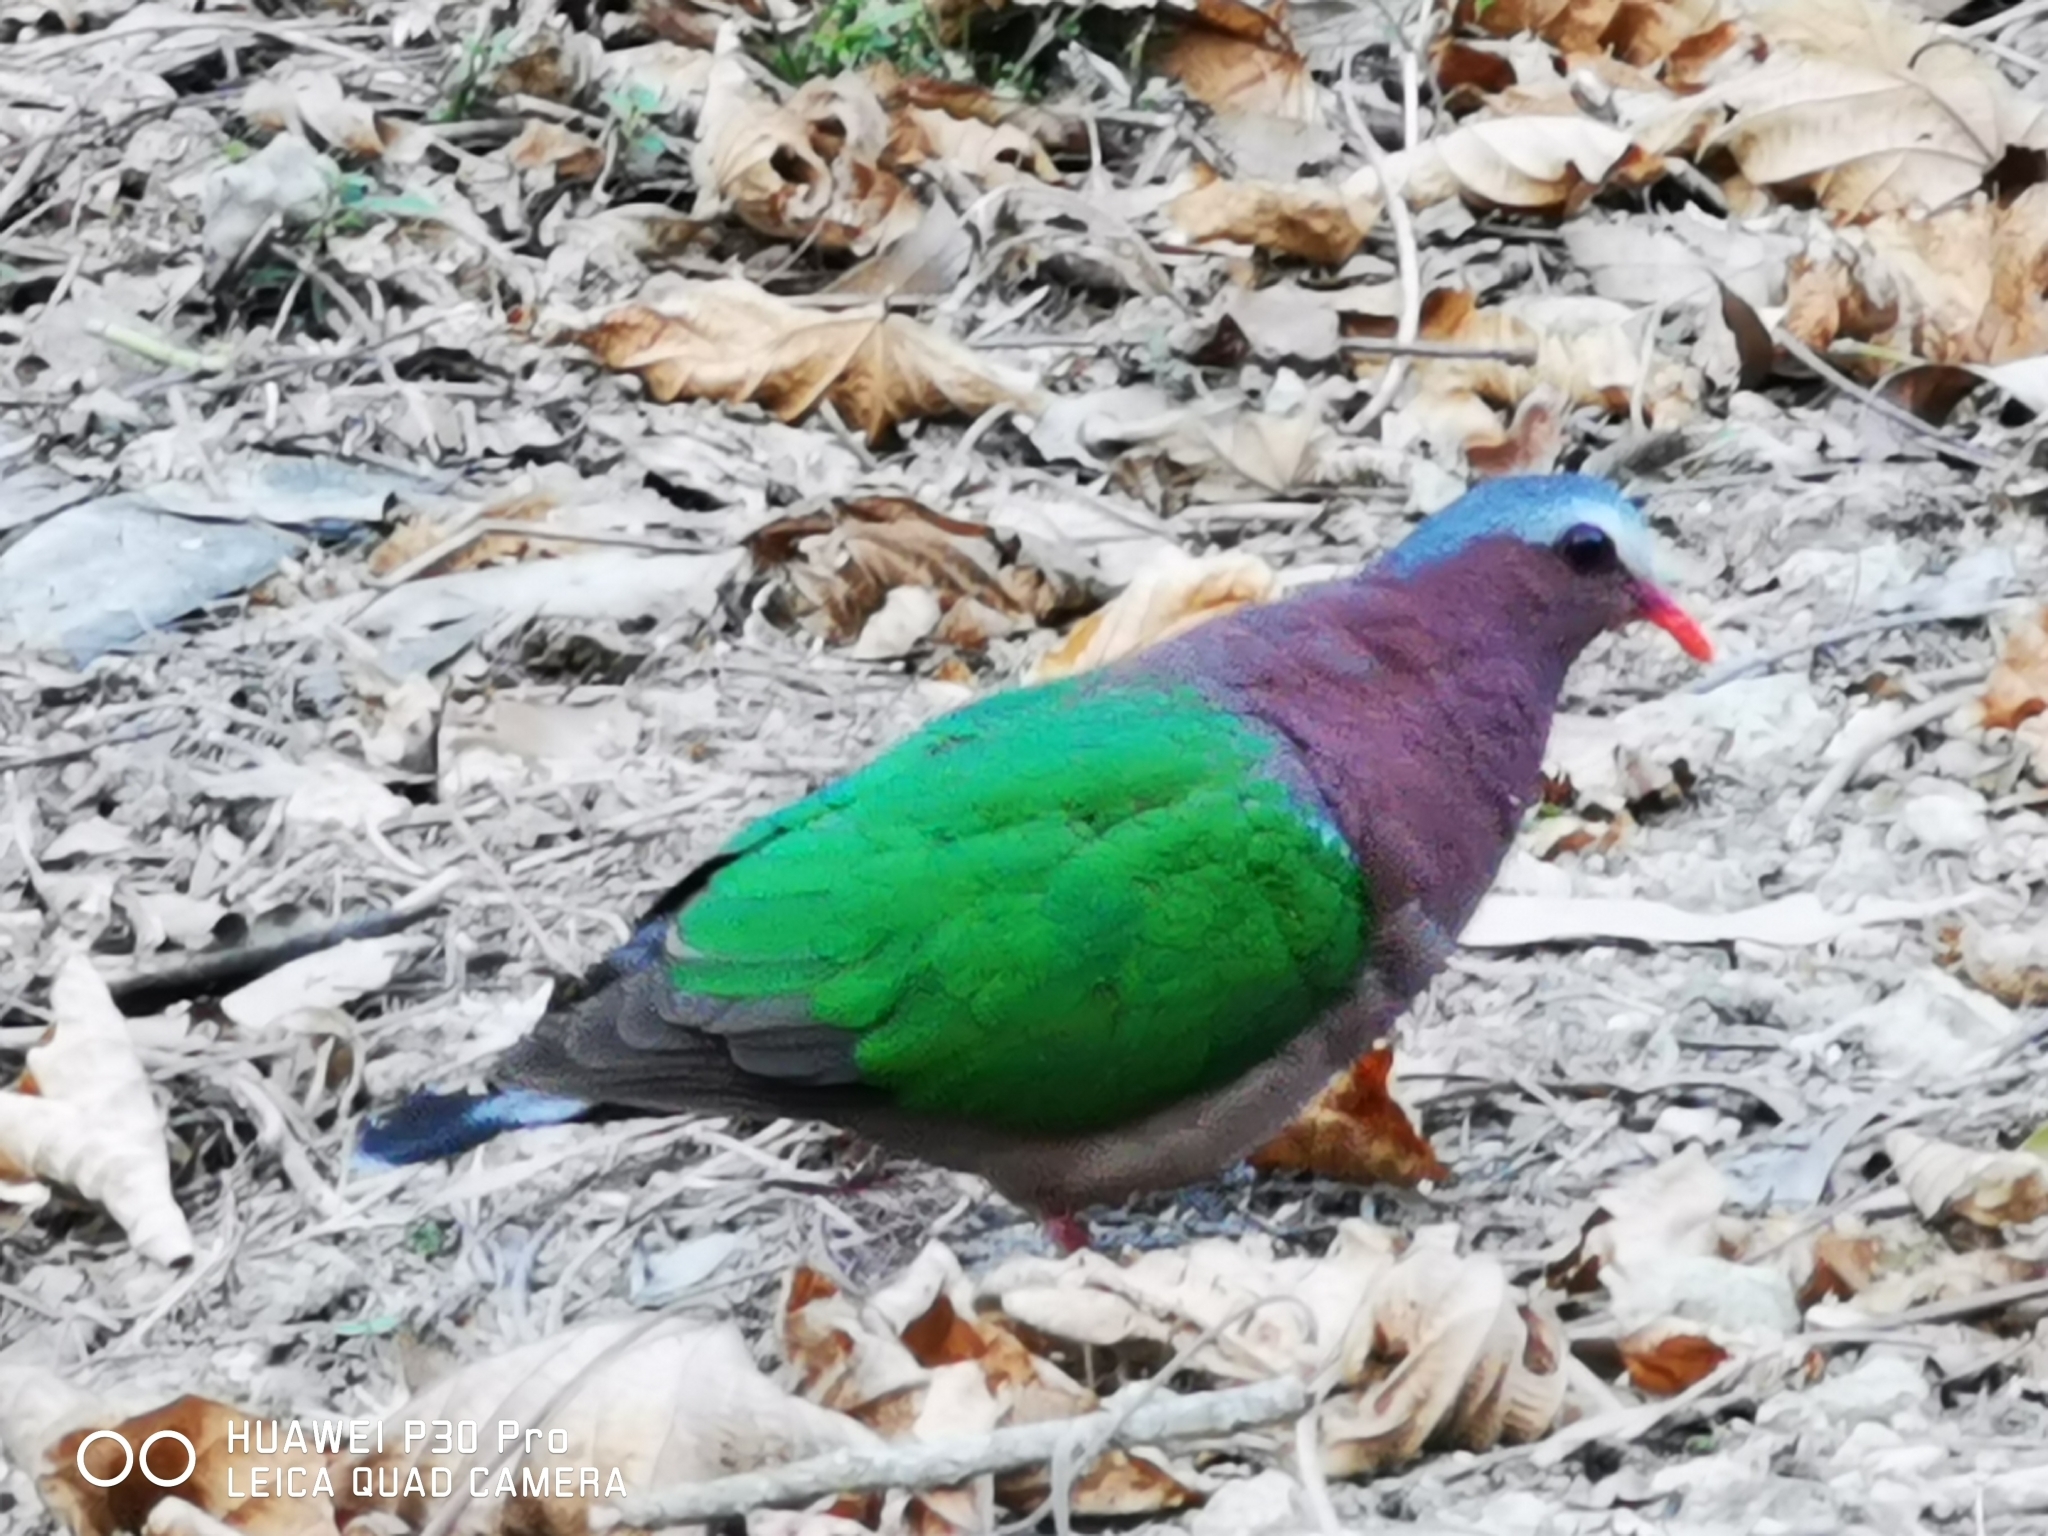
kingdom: Animalia
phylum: Chordata
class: Aves
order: Columbiformes
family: Columbidae
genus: Chalcophaps
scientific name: Chalcophaps indica
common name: Common emerald dove
